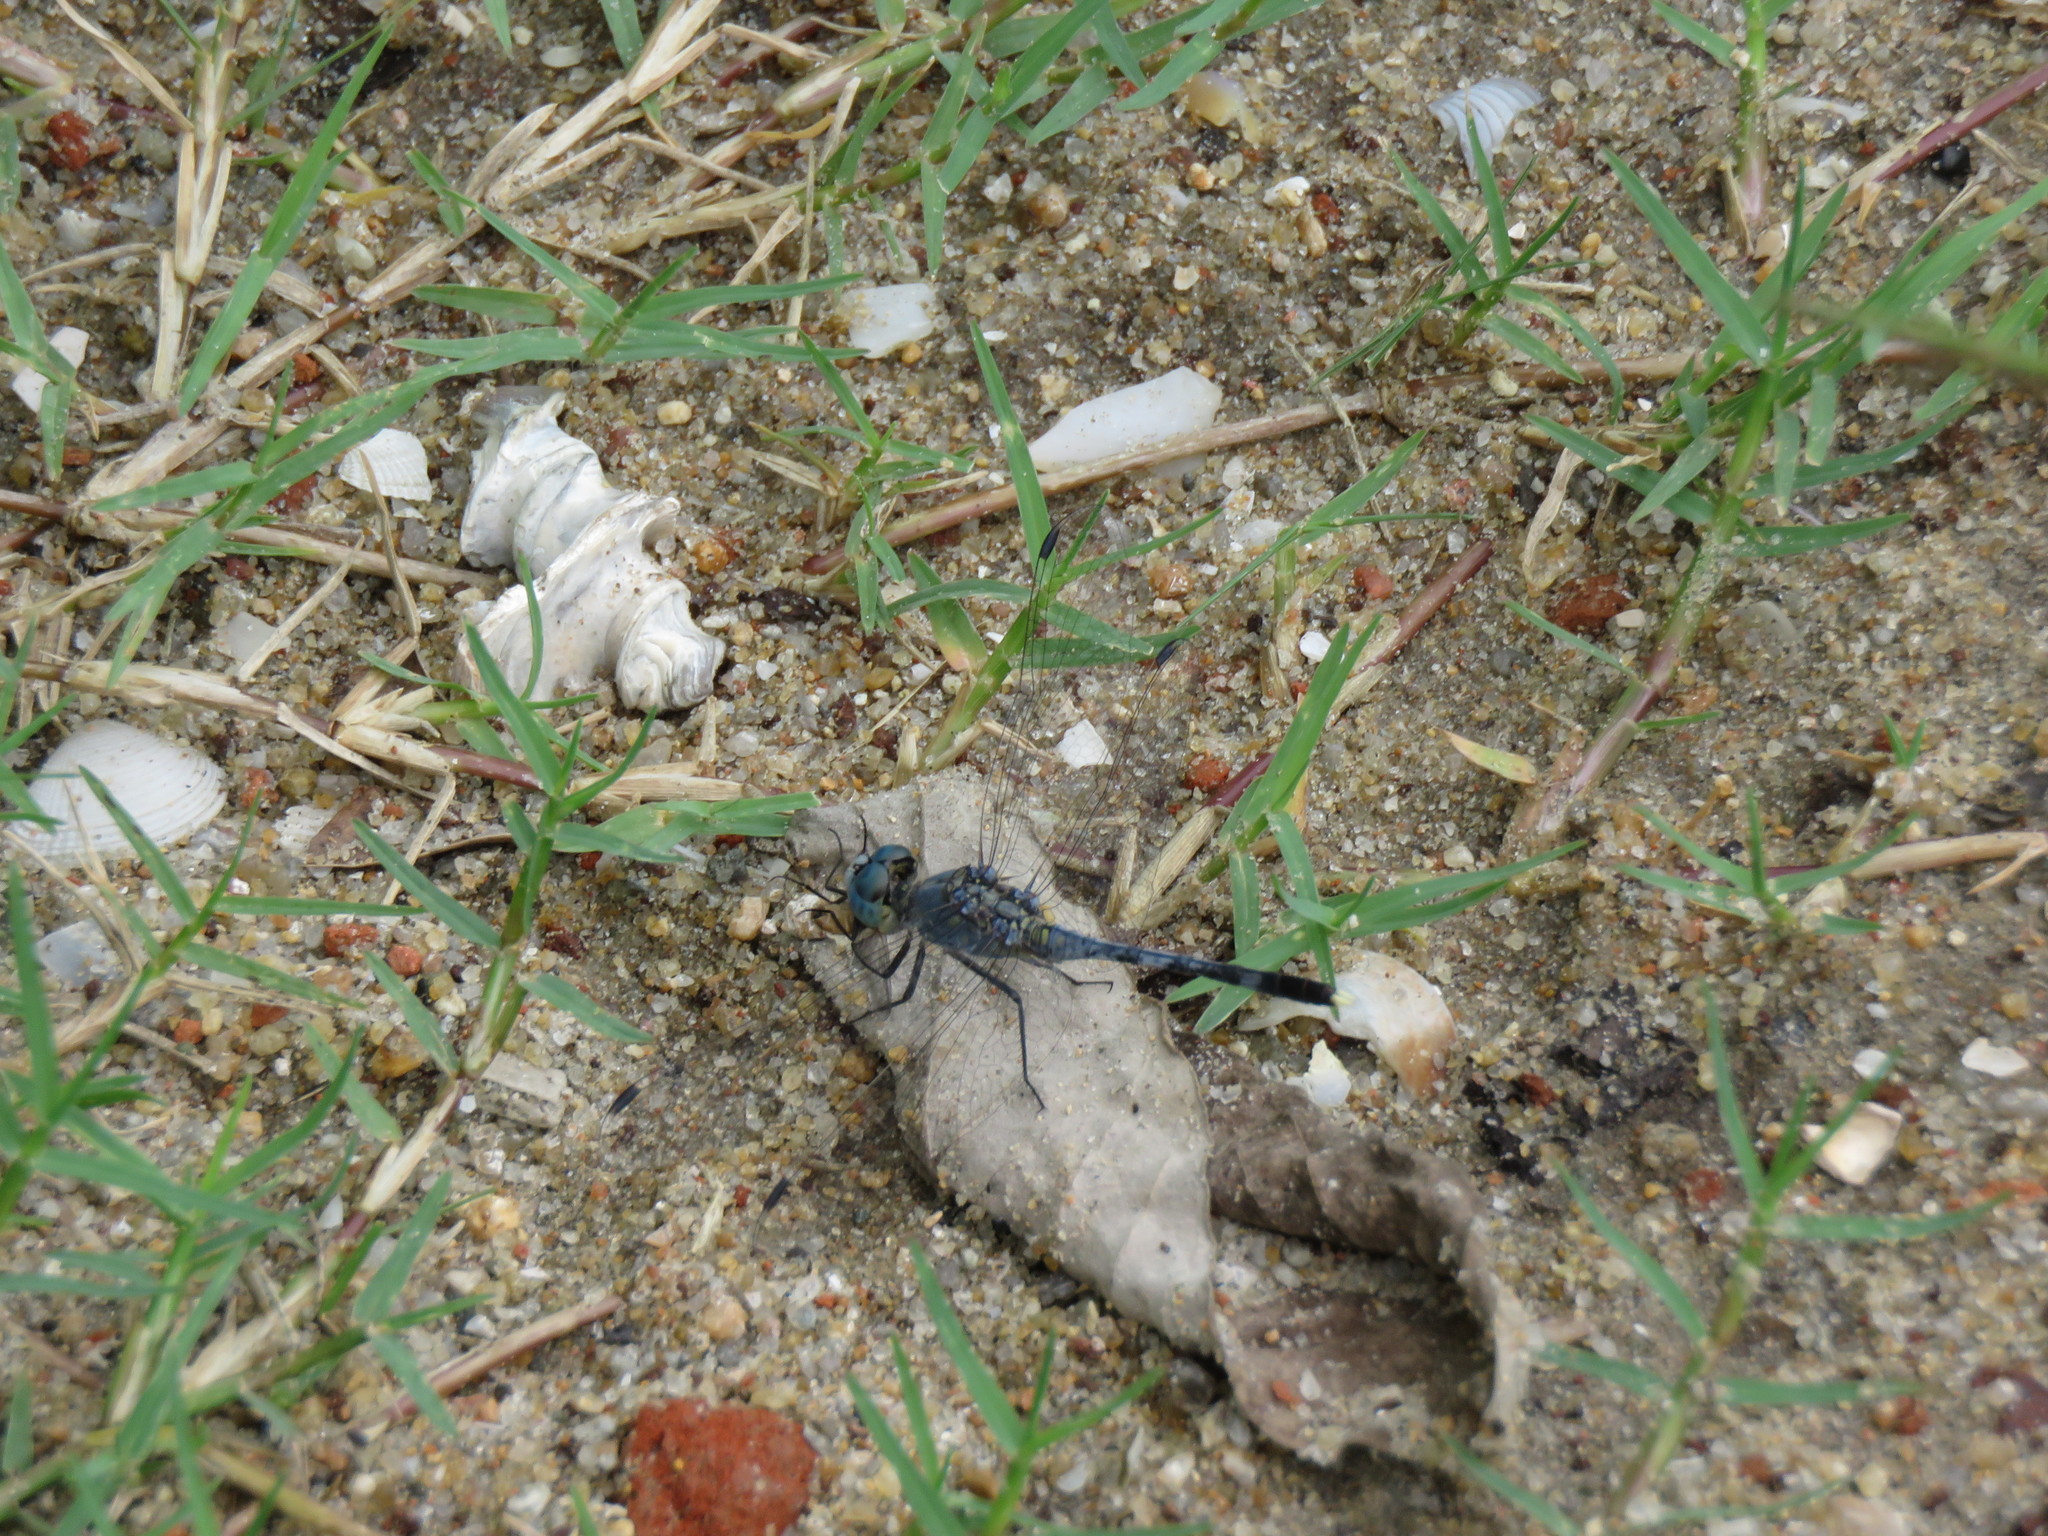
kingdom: Animalia
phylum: Arthropoda
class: Insecta
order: Odonata
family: Libellulidae
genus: Diplacodes
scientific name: Diplacodes trivialis
